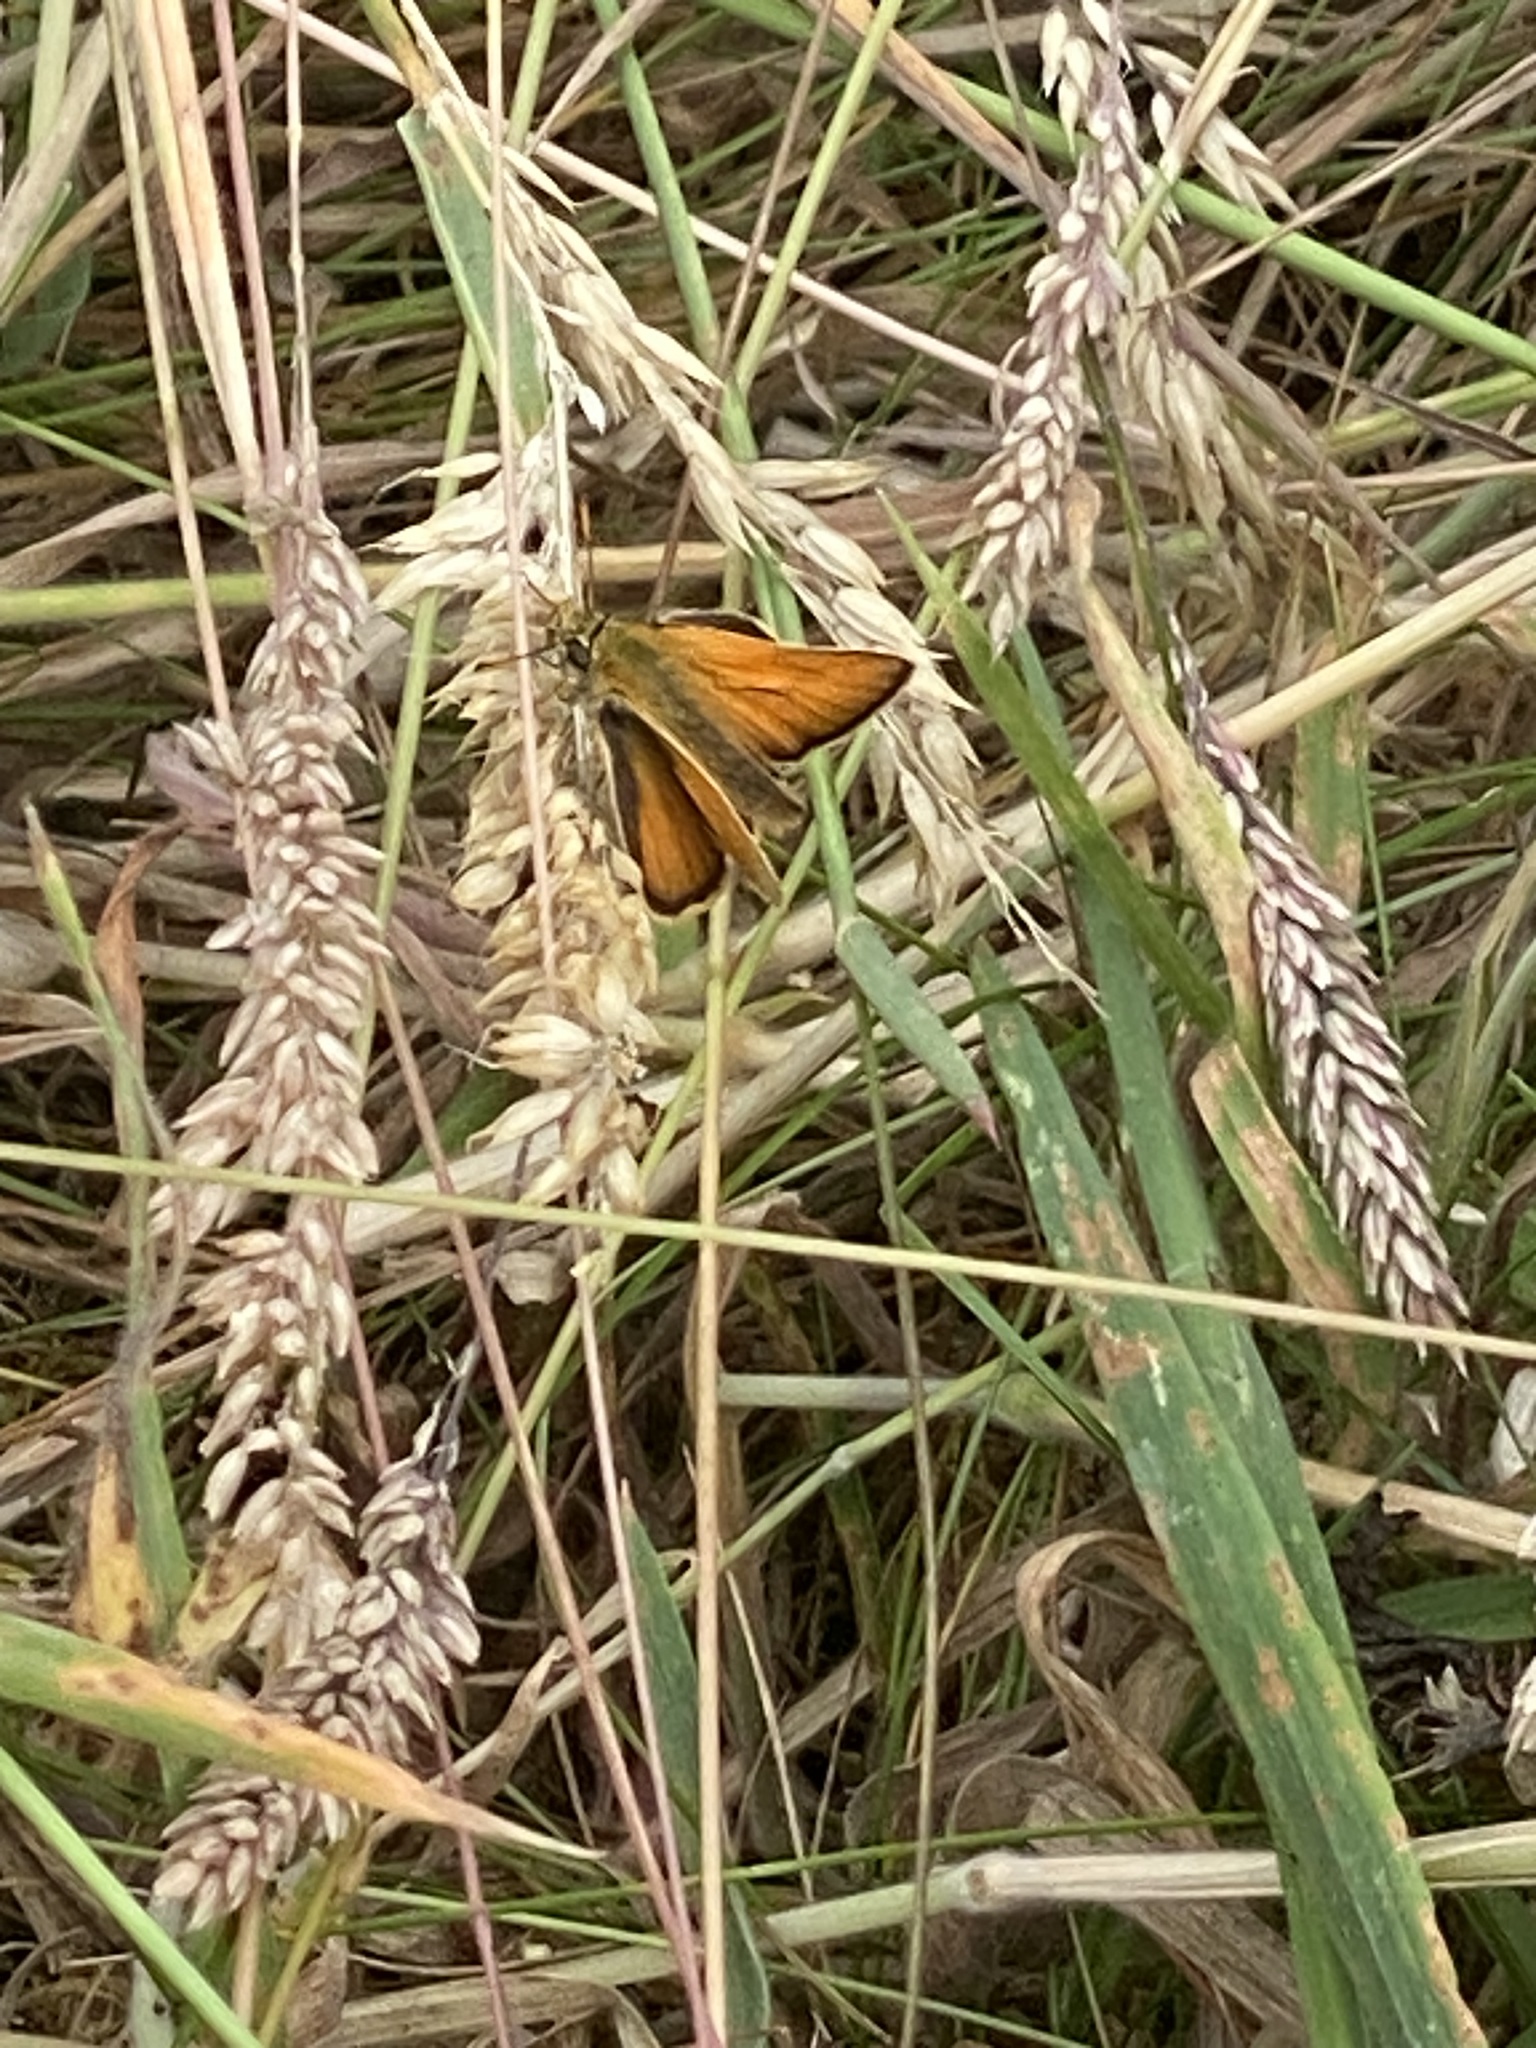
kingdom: Animalia
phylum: Arthropoda
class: Insecta
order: Lepidoptera
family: Hesperiidae
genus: Thymelicus
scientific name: Thymelicus sylvestris
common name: Small skipper
